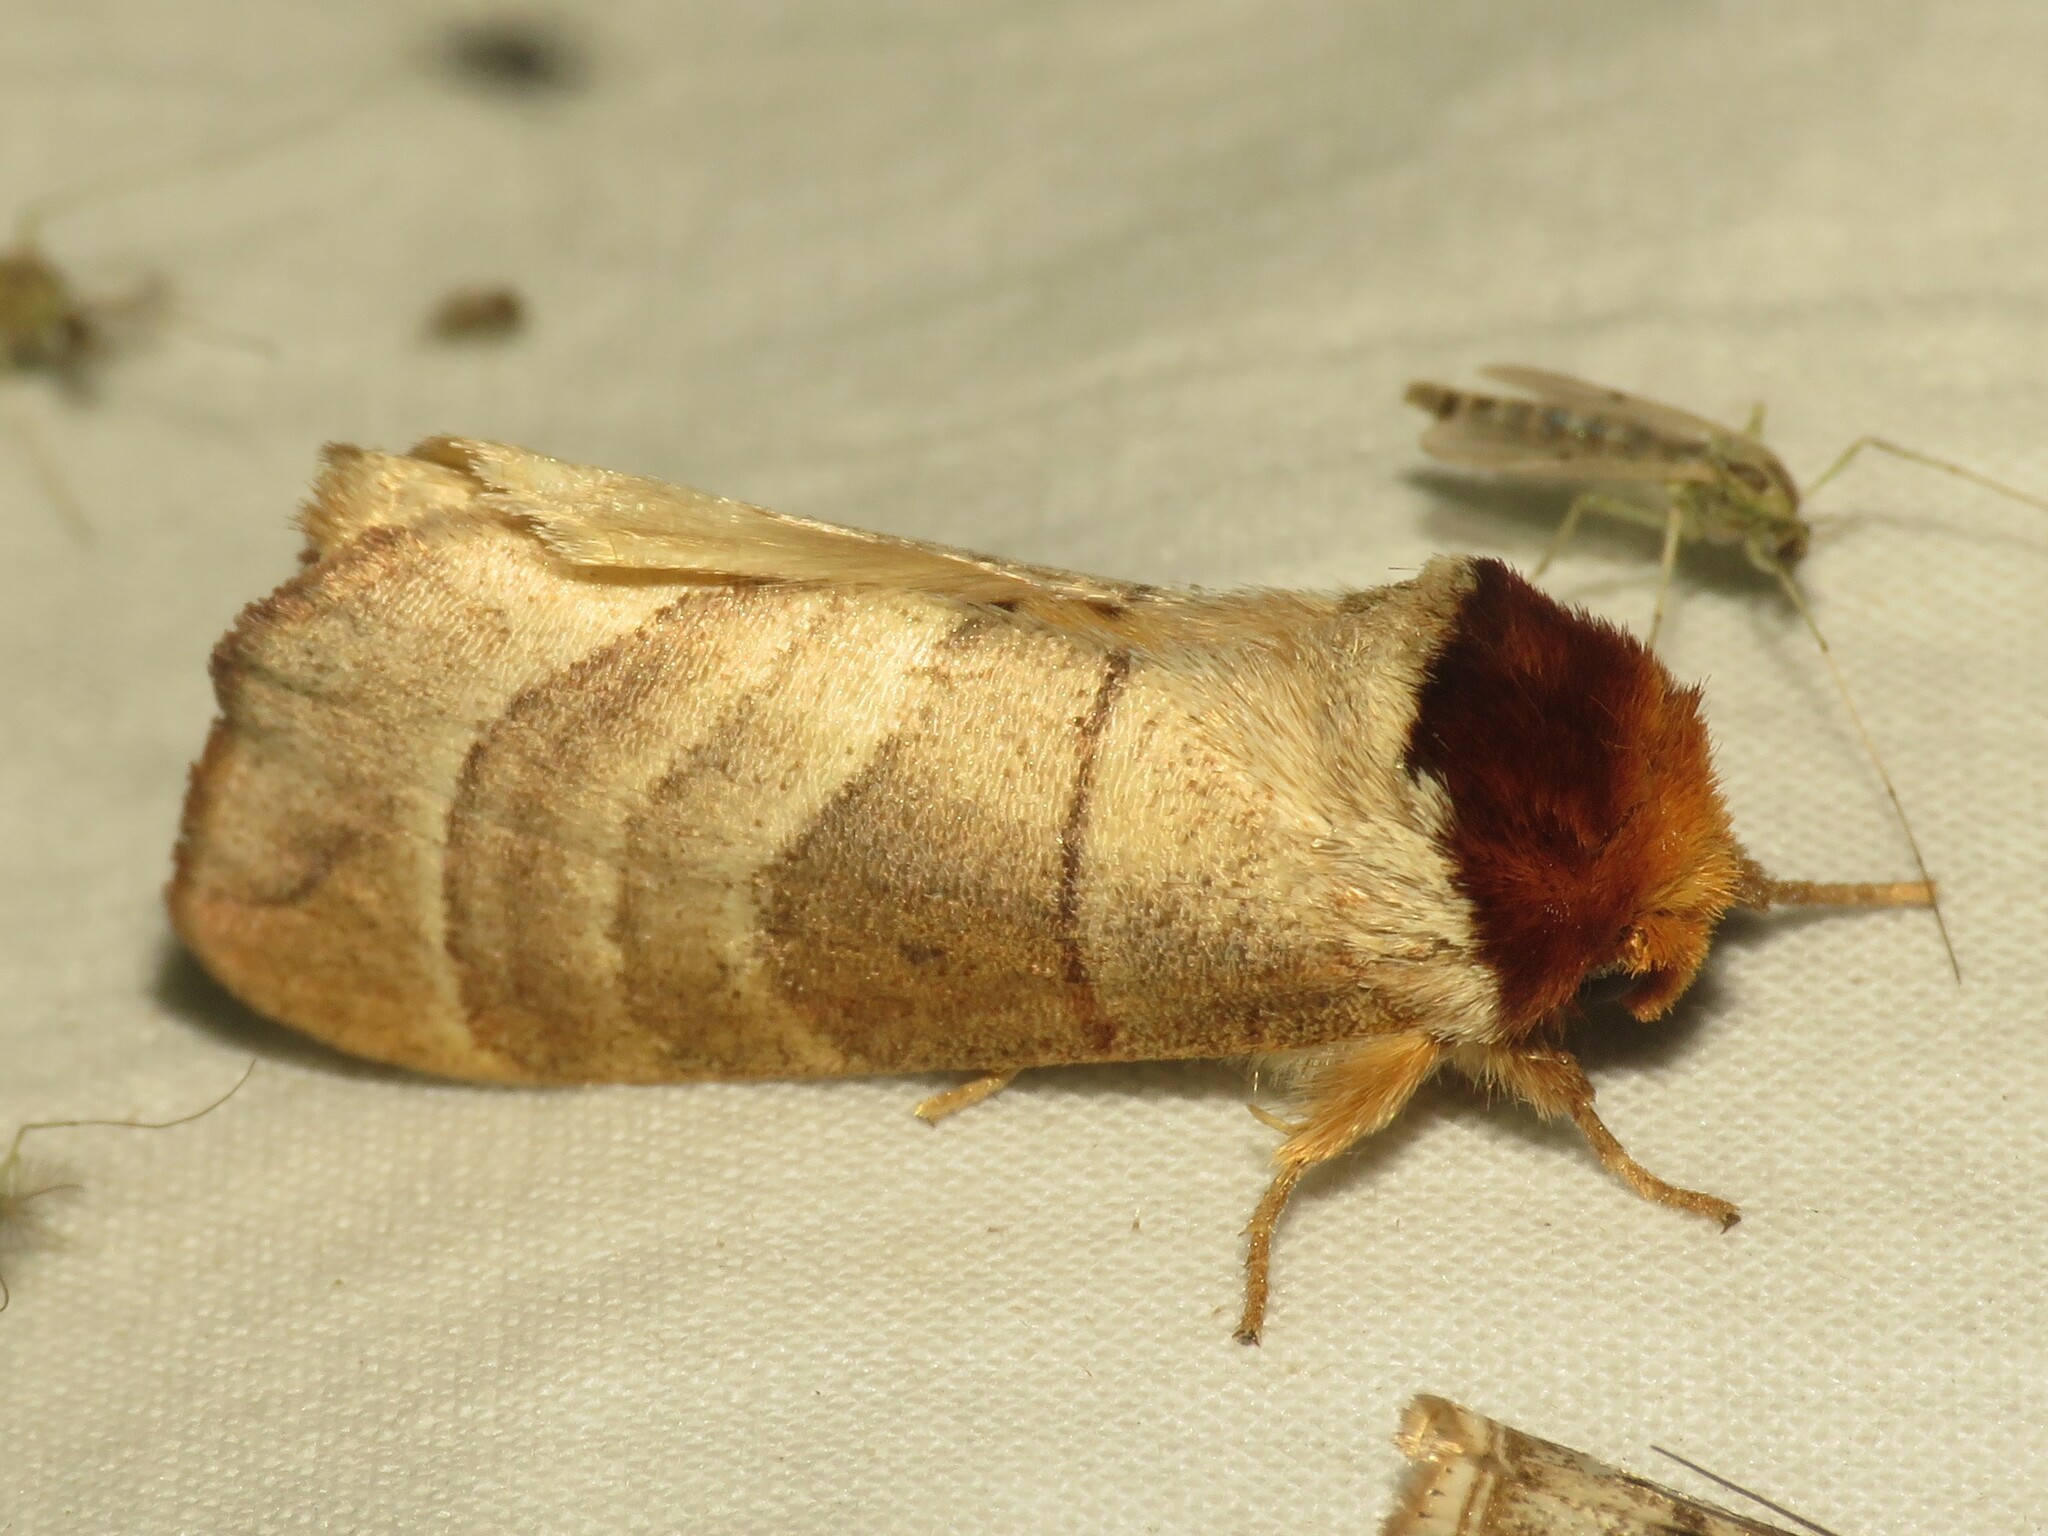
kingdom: Animalia
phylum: Arthropoda
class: Insecta
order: Lepidoptera
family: Notodontidae
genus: Datana
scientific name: Datana integerrima
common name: Walnut caterpillar
